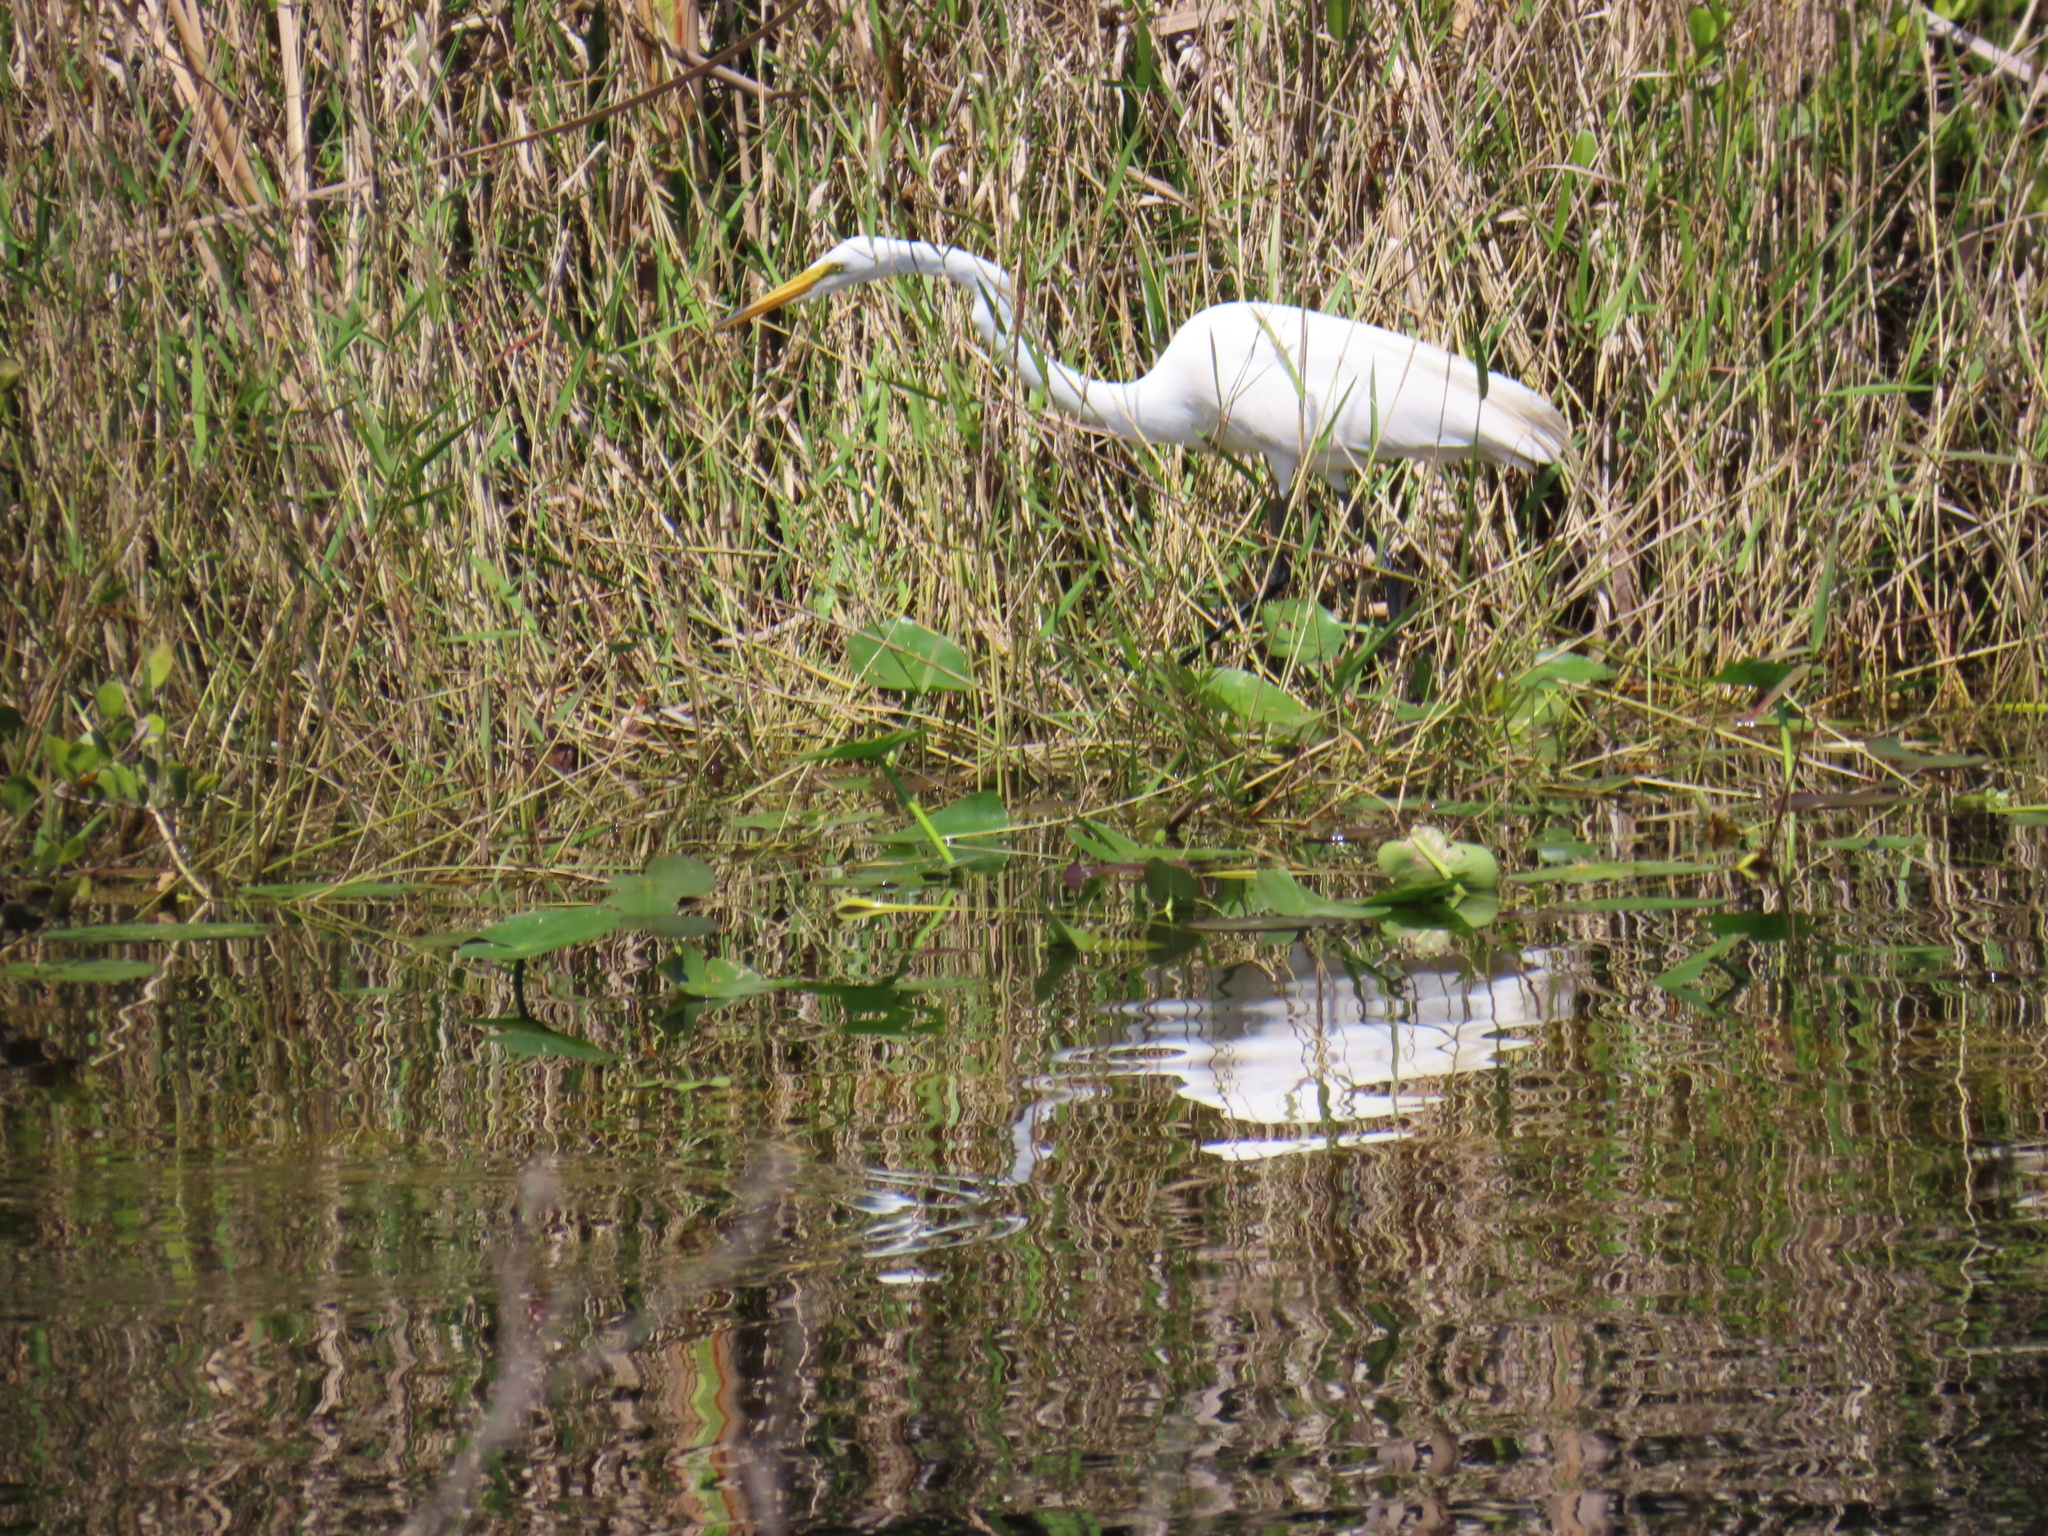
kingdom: Animalia
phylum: Chordata
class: Aves
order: Pelecaniformes
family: Ardeidae
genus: Ardea
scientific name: Ardea alba
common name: Great egret
